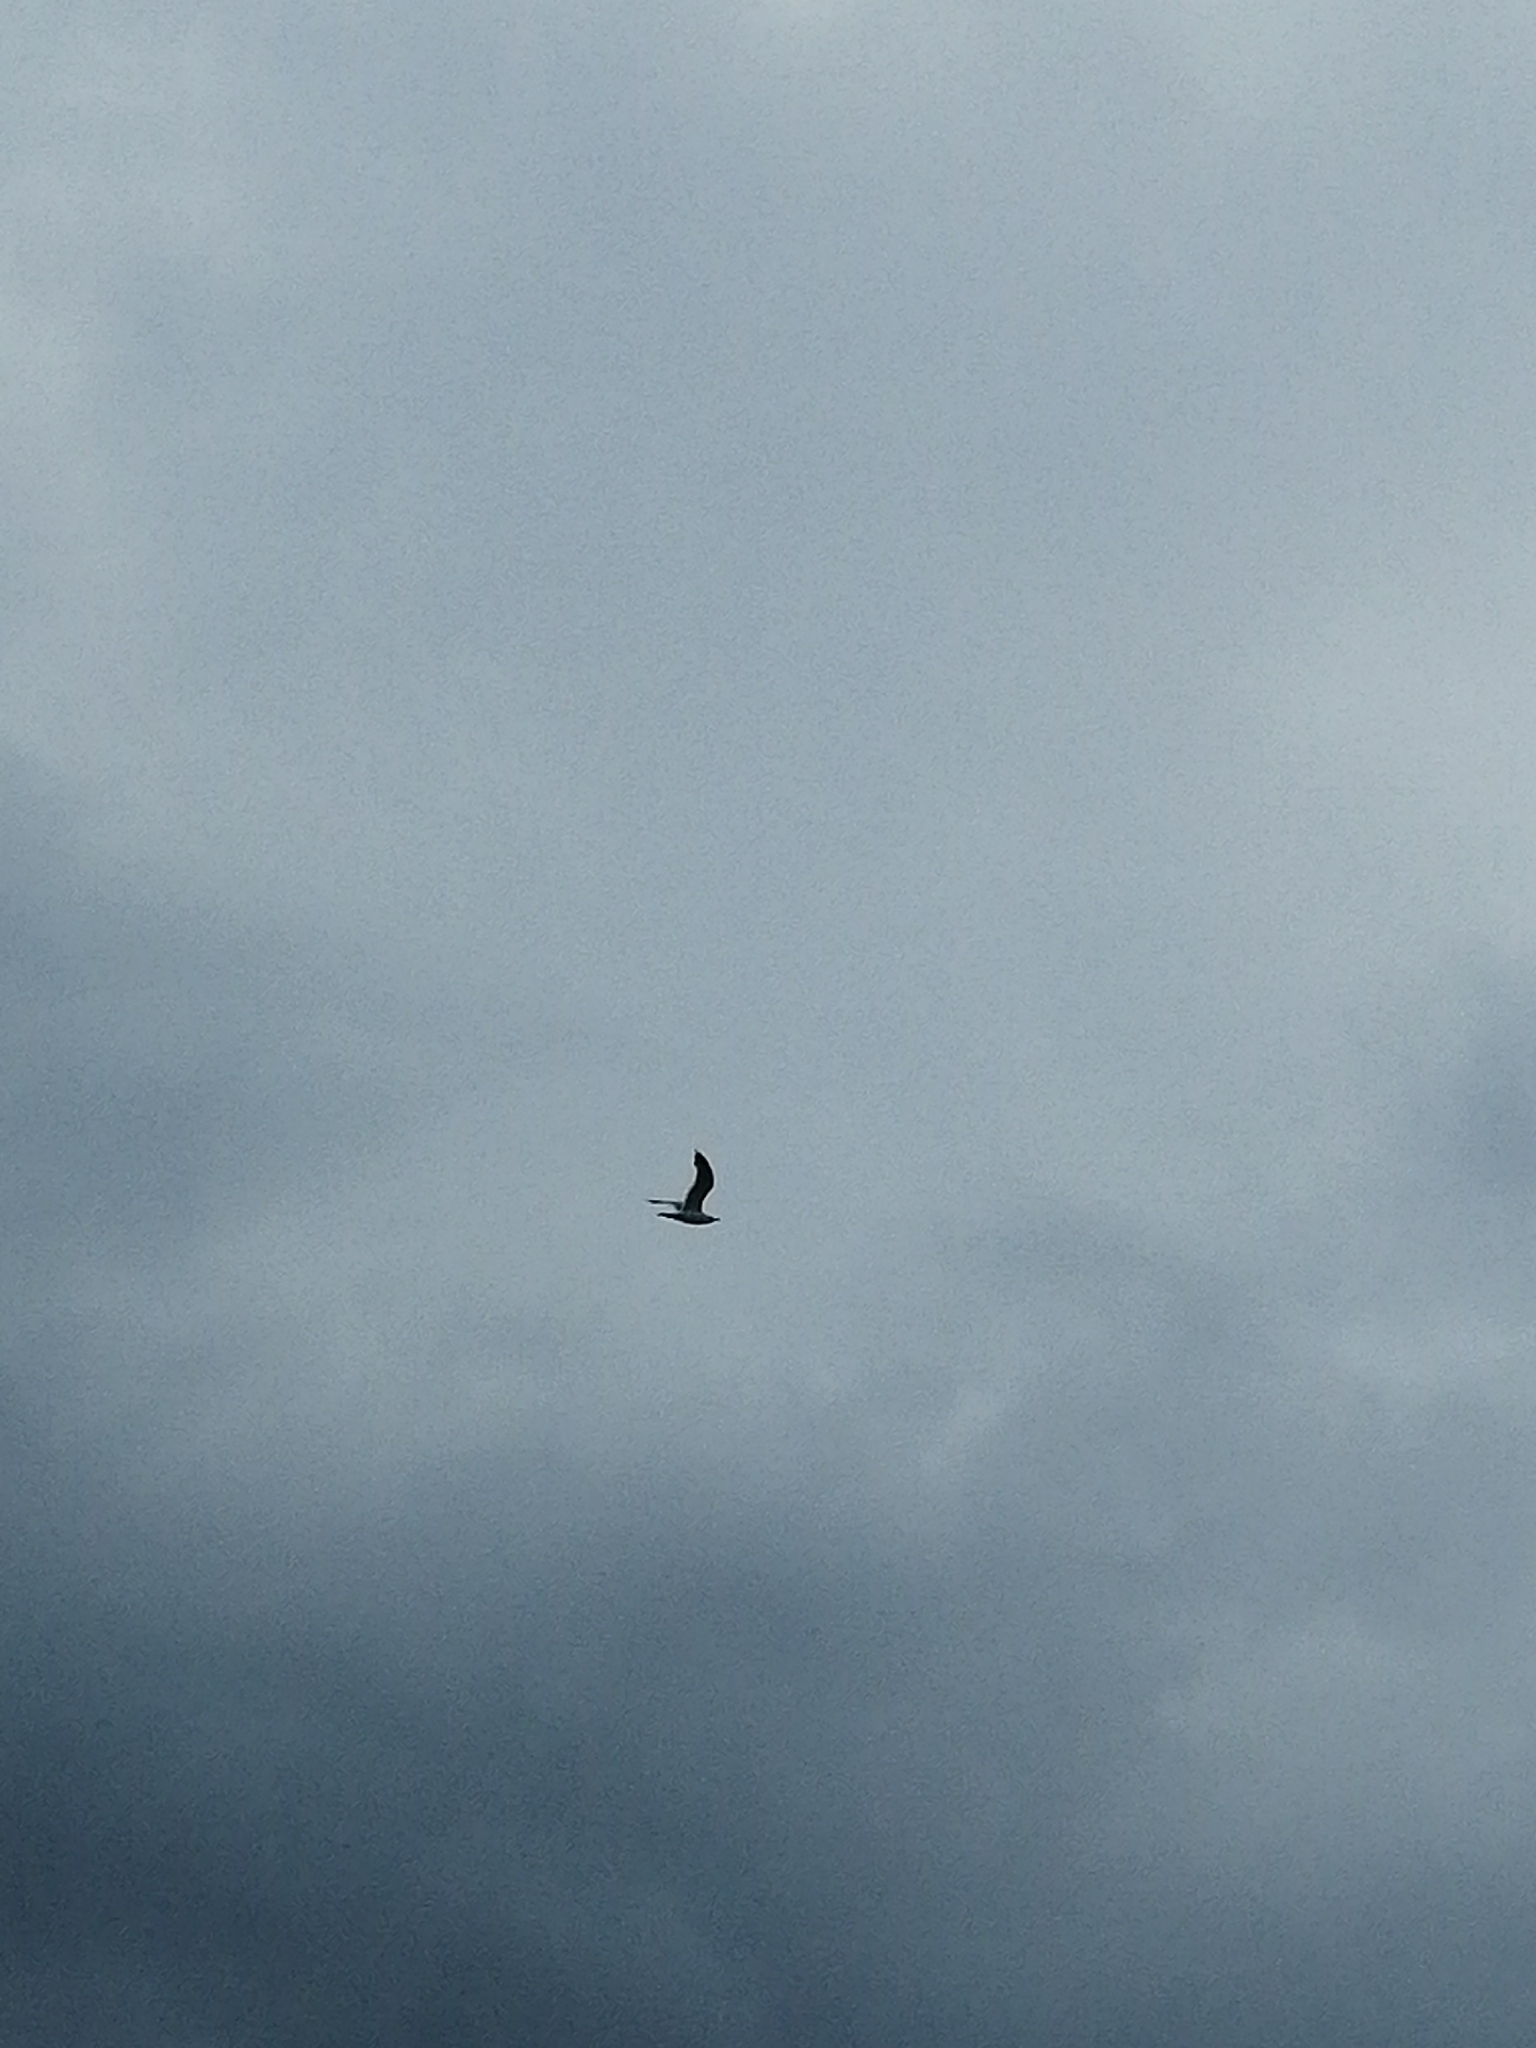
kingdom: Animalia
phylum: Chordata
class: Aves
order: Charadriiformes
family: Laridae
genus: Larus
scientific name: Larus canus
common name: Mew gull
